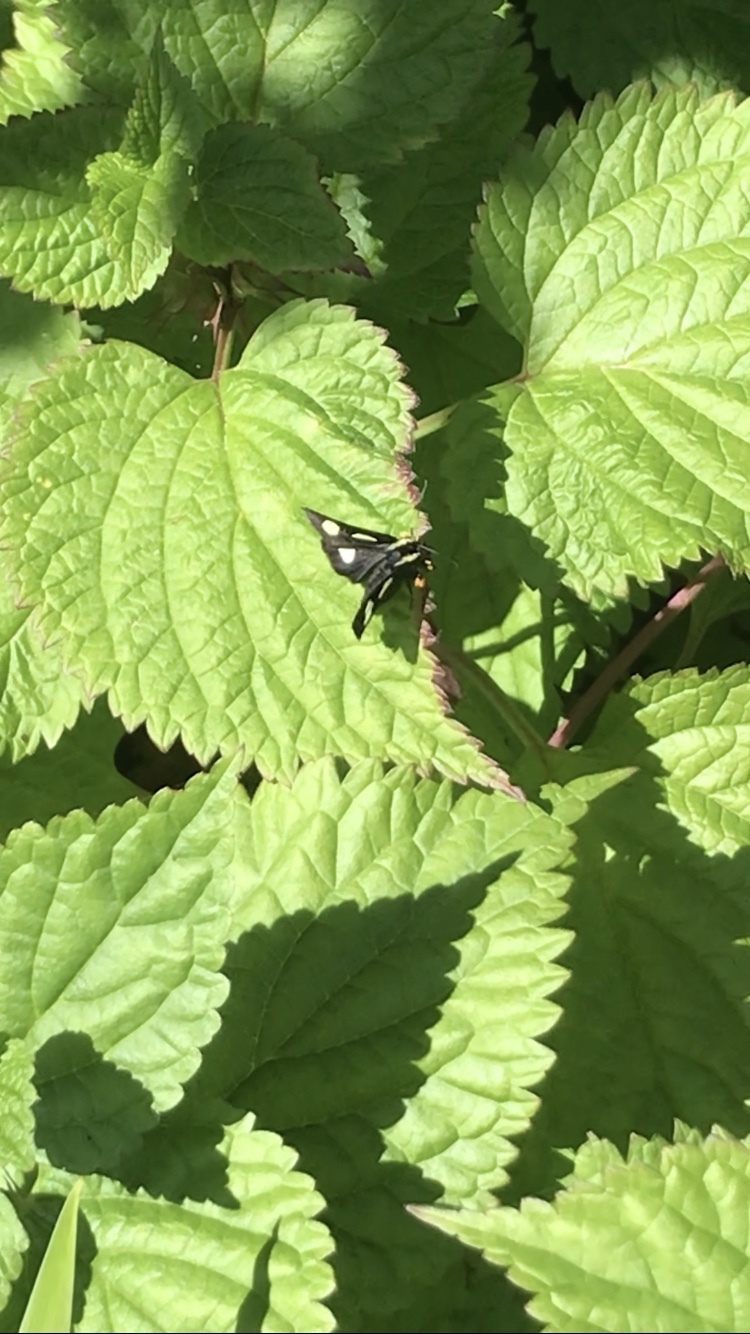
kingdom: Animalia
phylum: Arthropoda
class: Insecta
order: Lepidoptera
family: Noctuidae
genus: Alypia
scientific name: Alypia langtonii
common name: Fireweed caterpillar
